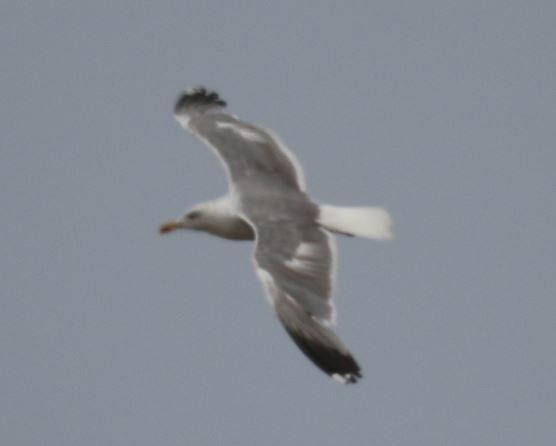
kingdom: Animalia
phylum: Chordata
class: Aves
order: Charadriiformes
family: Laridae
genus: Larus
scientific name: Larus michahellis
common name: Yellow-legged gull
